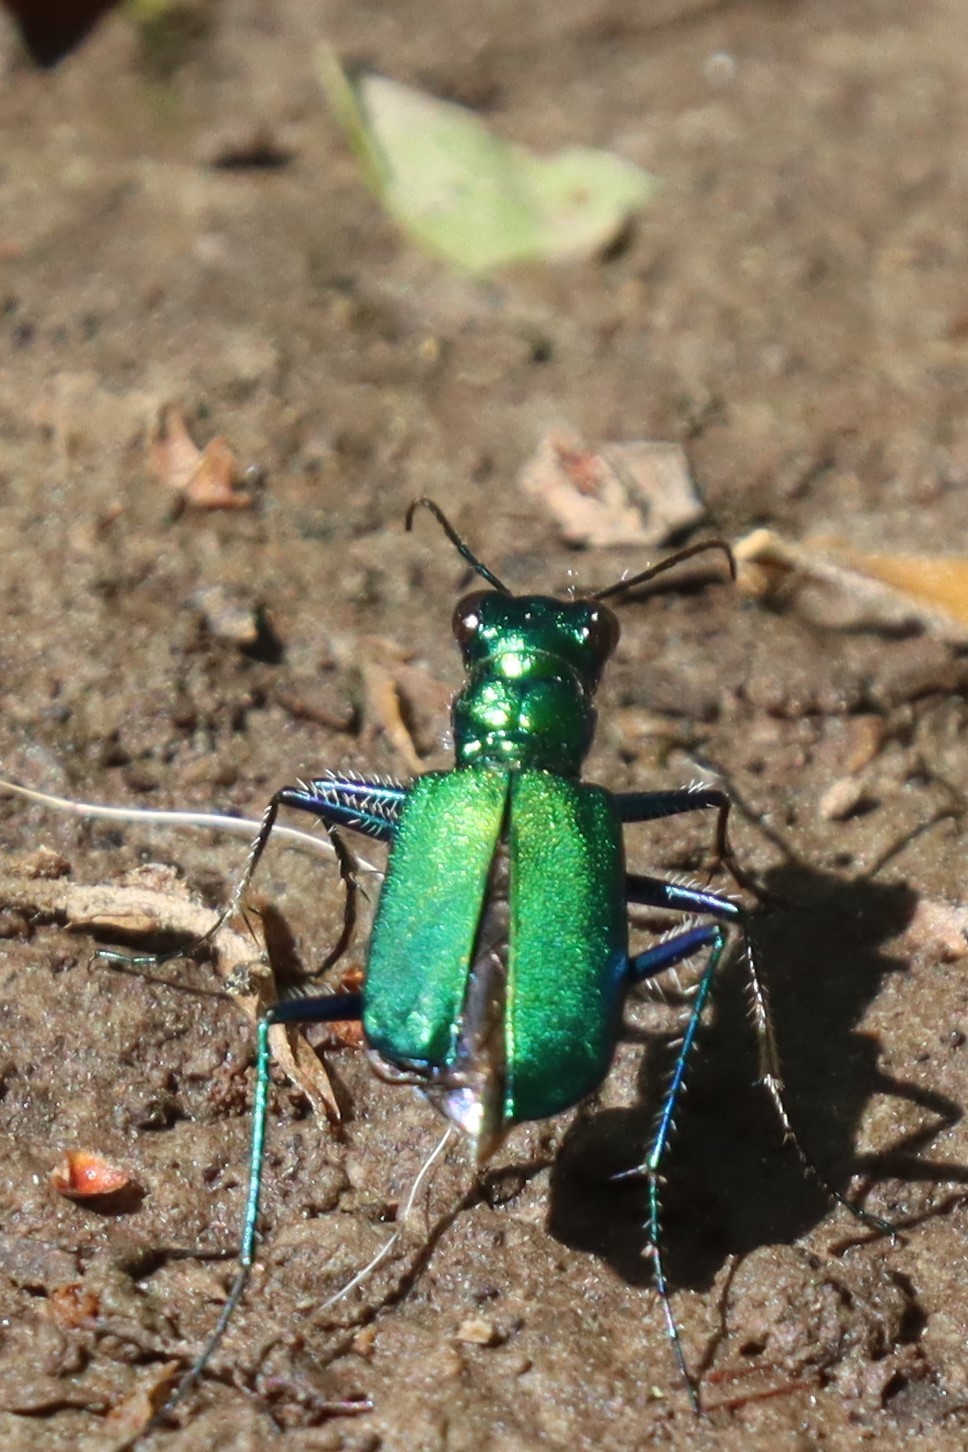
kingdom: Animalia
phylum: Arthropoda
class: Insecta
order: Coleoptera
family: Carabidae
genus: Cicindela
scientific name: Cicindela sexguttata
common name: Six-spotted tiger beetle
